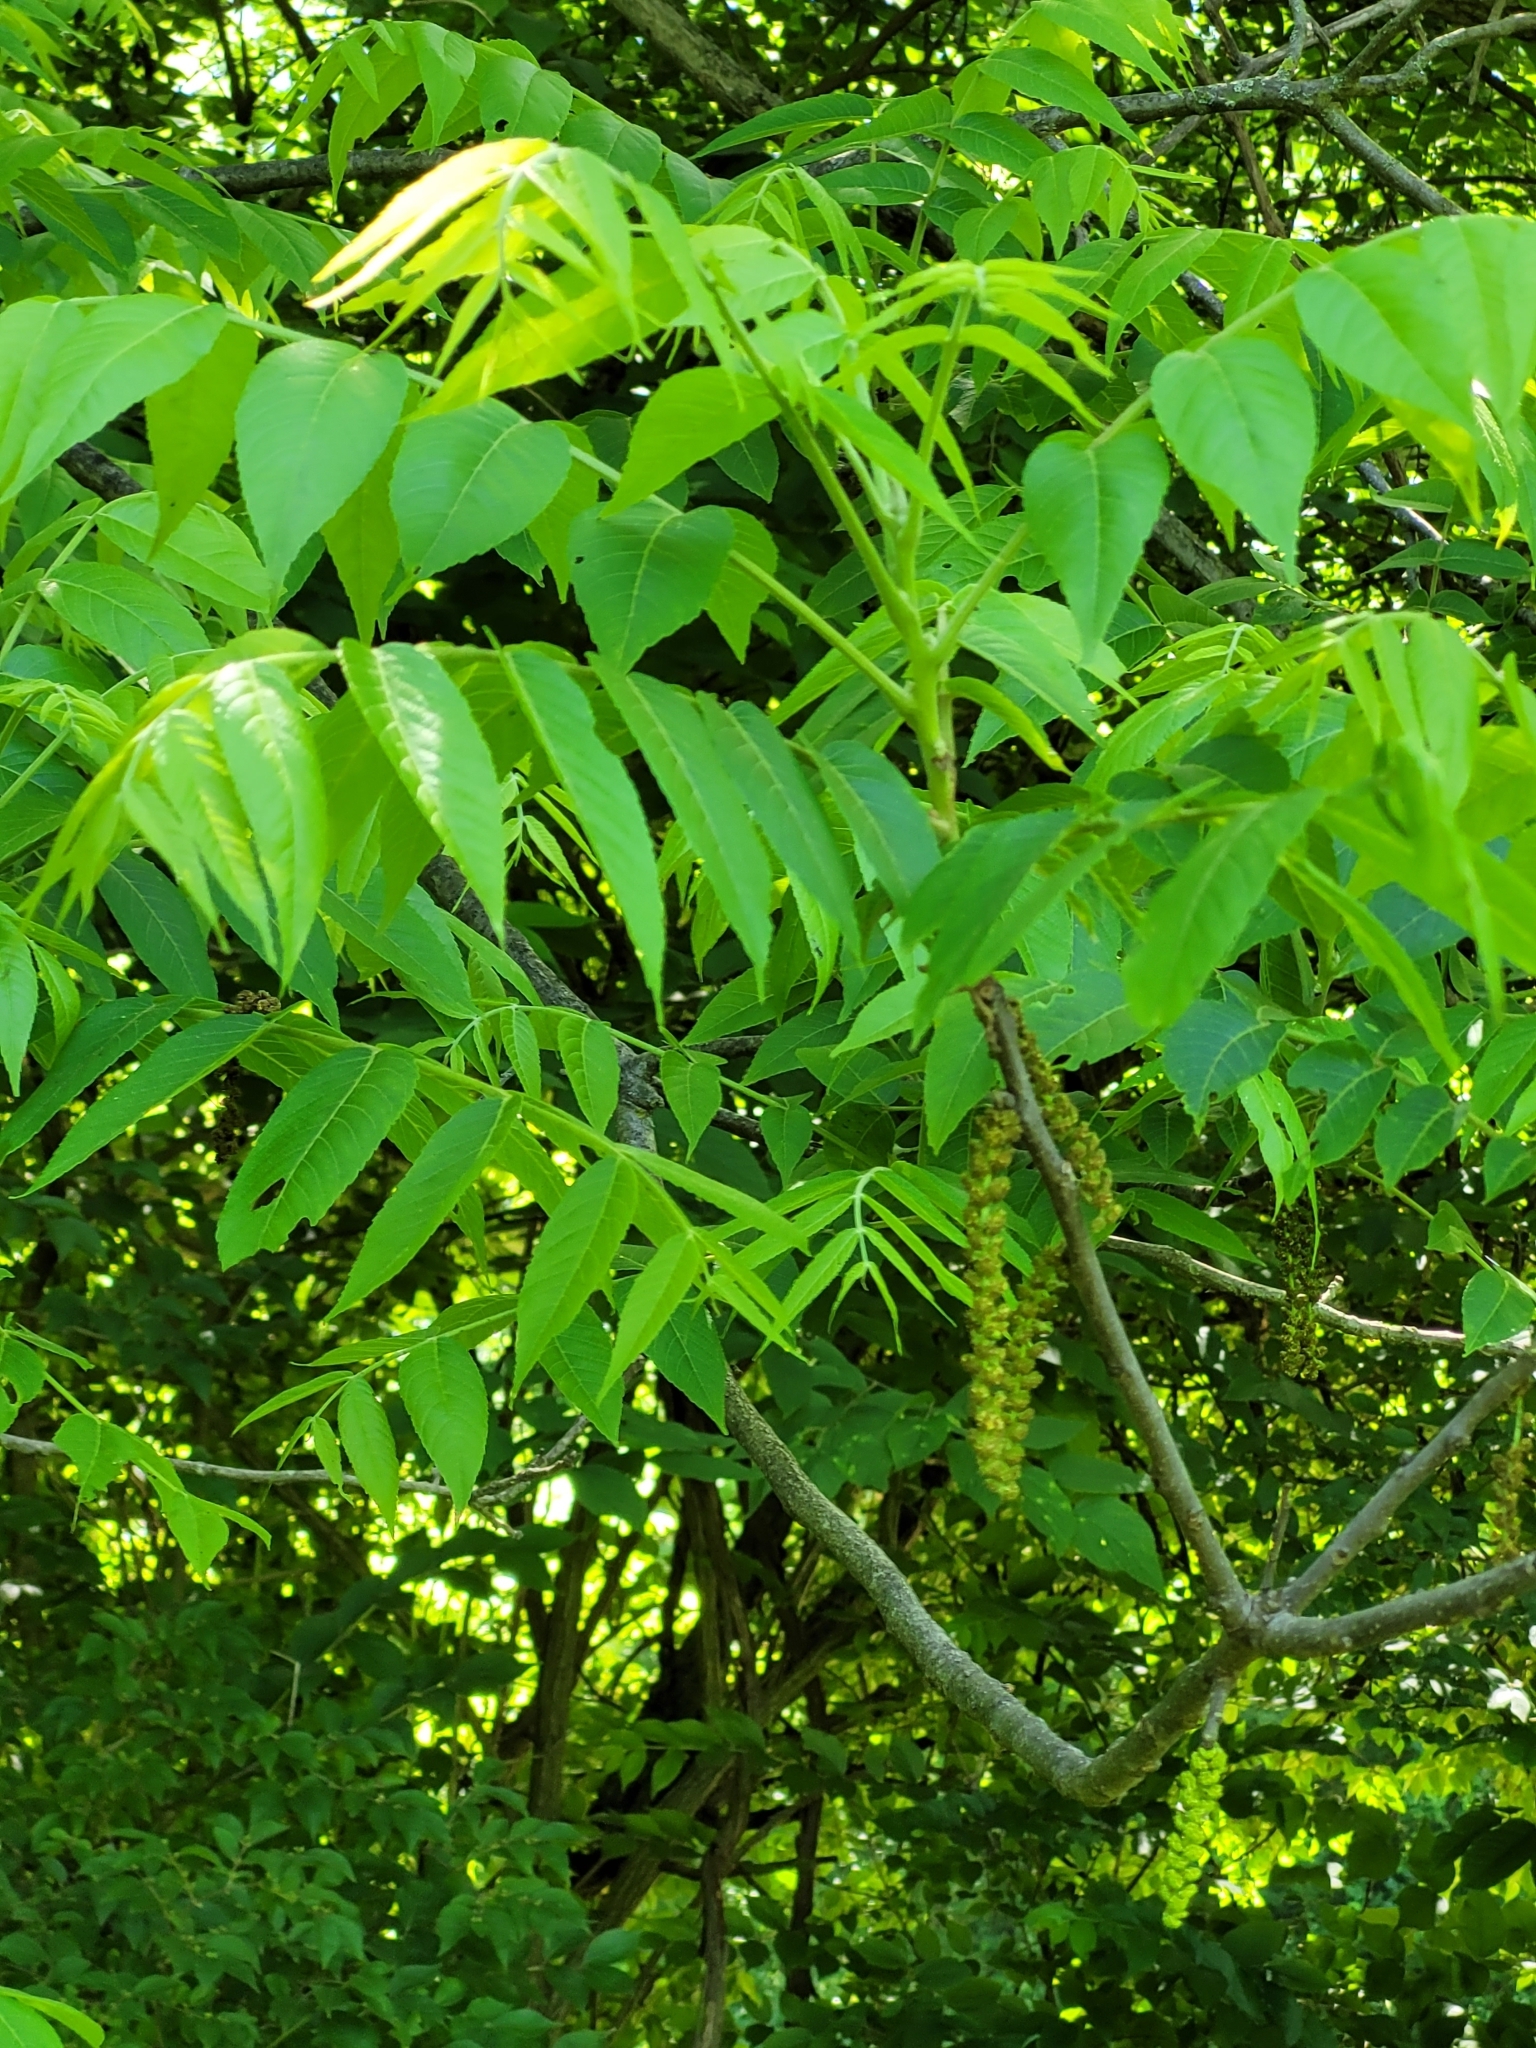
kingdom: Plantae
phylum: Tracheophyta
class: Magnoliopsida
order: Fagales
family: Juglandaceae
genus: Juglans
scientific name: Juglans nigra
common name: Black walnut
